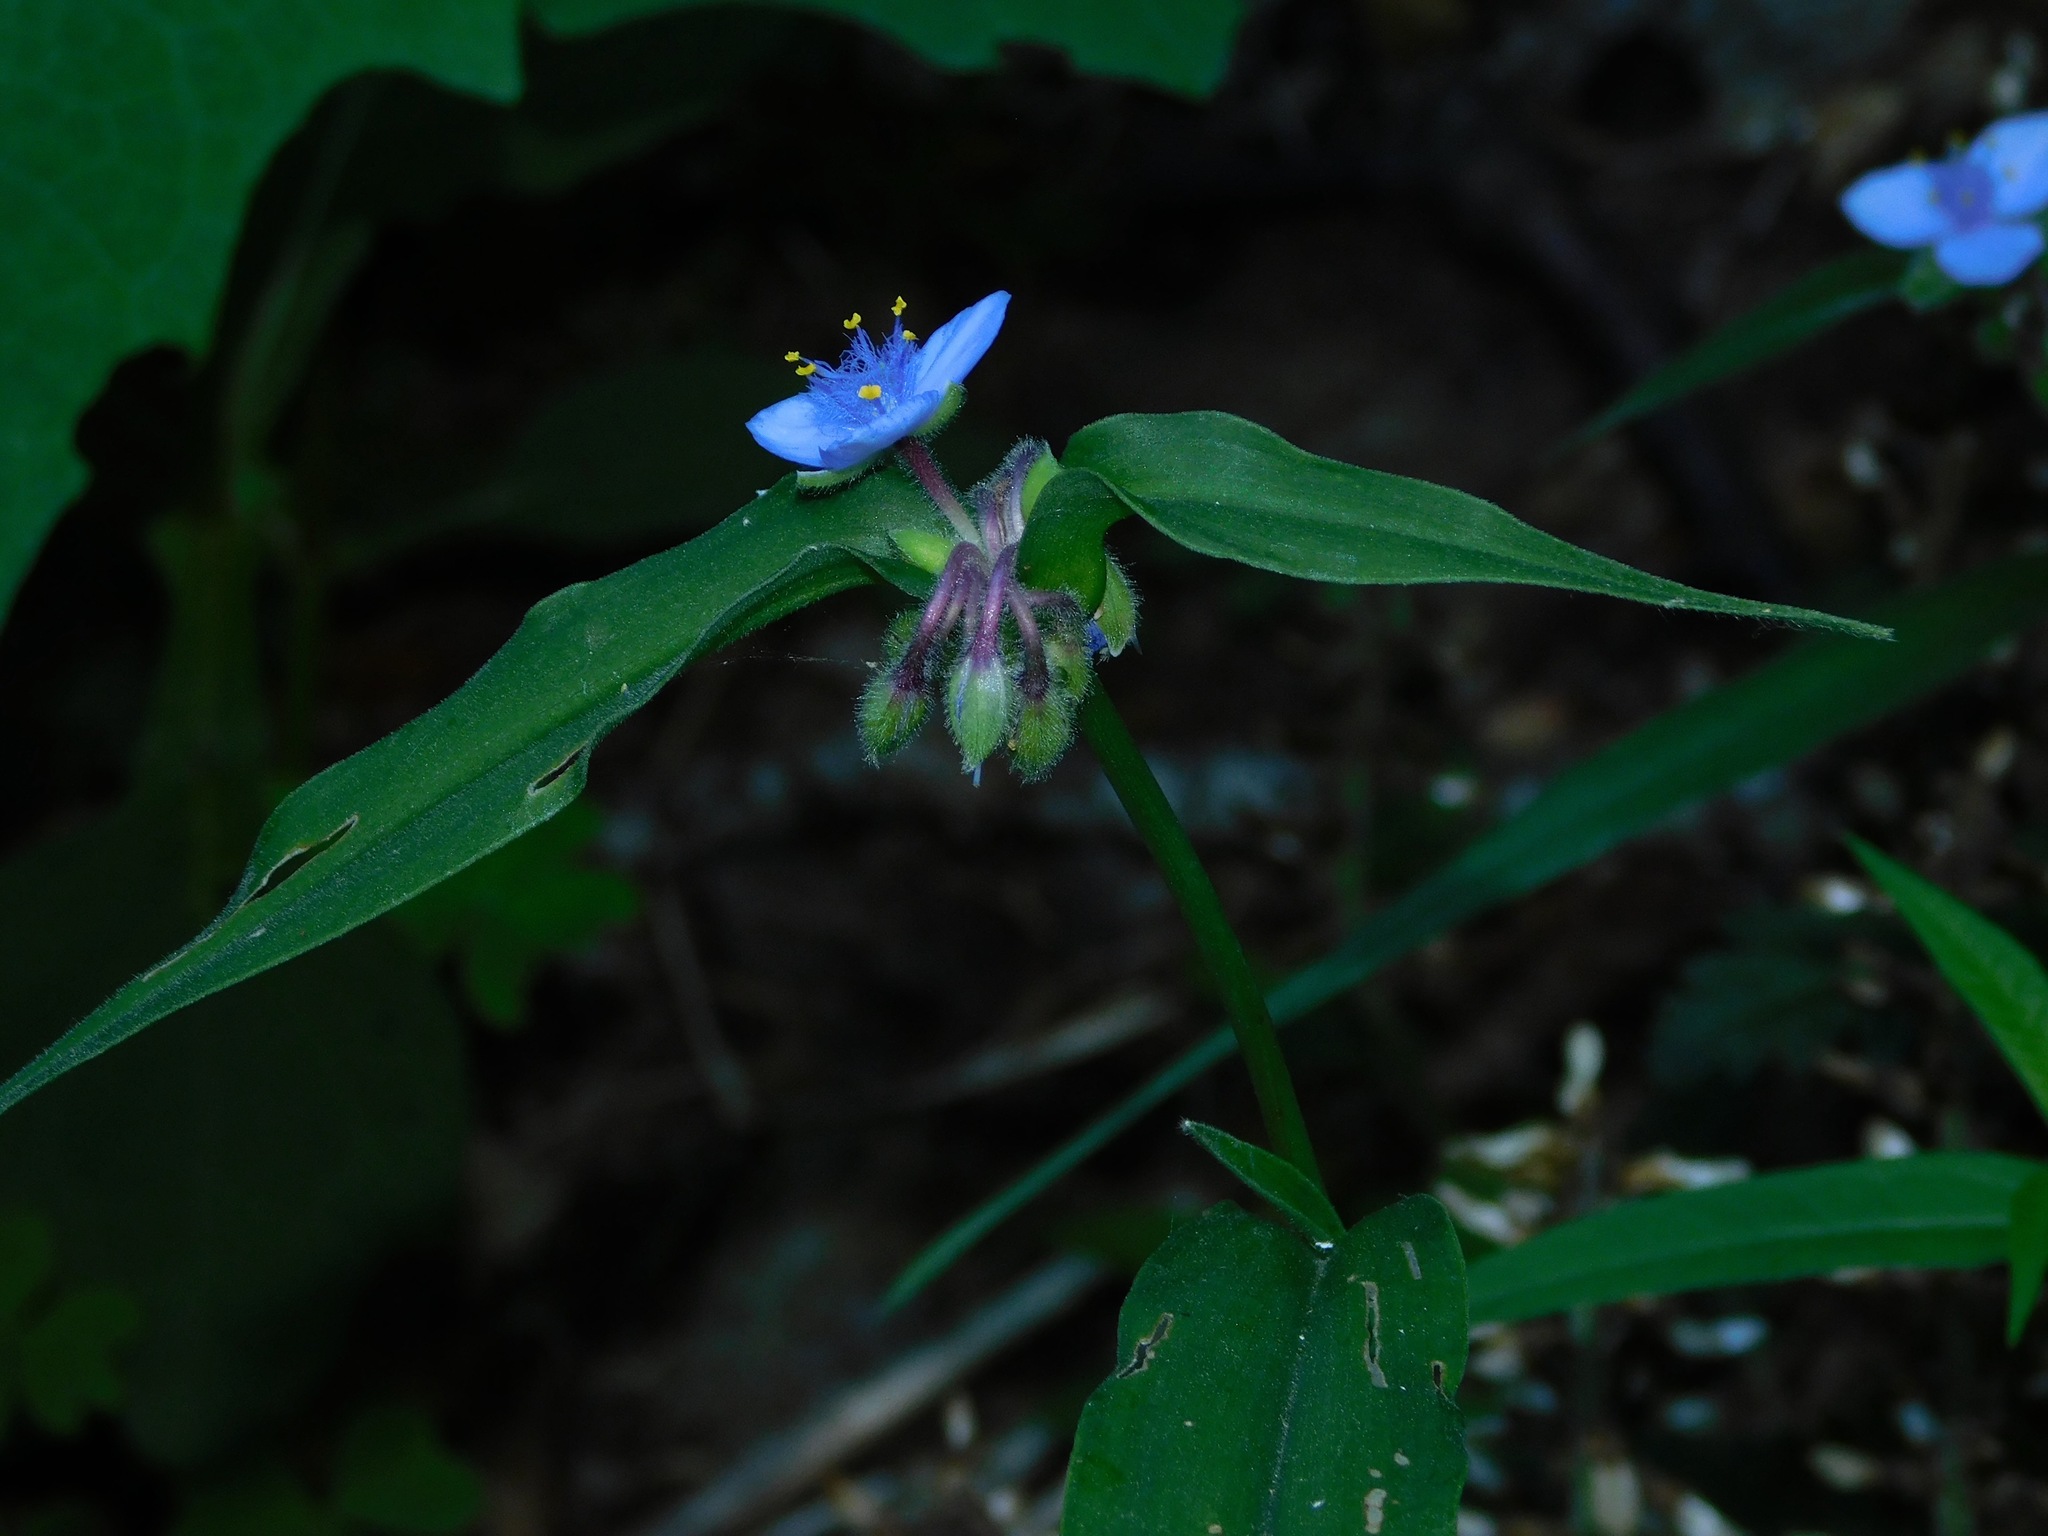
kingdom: Plantae
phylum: Tracheophyta
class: Liliopsida
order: Commelinales
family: Commelinaceae
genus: Tradescantia
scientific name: Tradescantia subaspera
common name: Wide-leaf spiderwort
